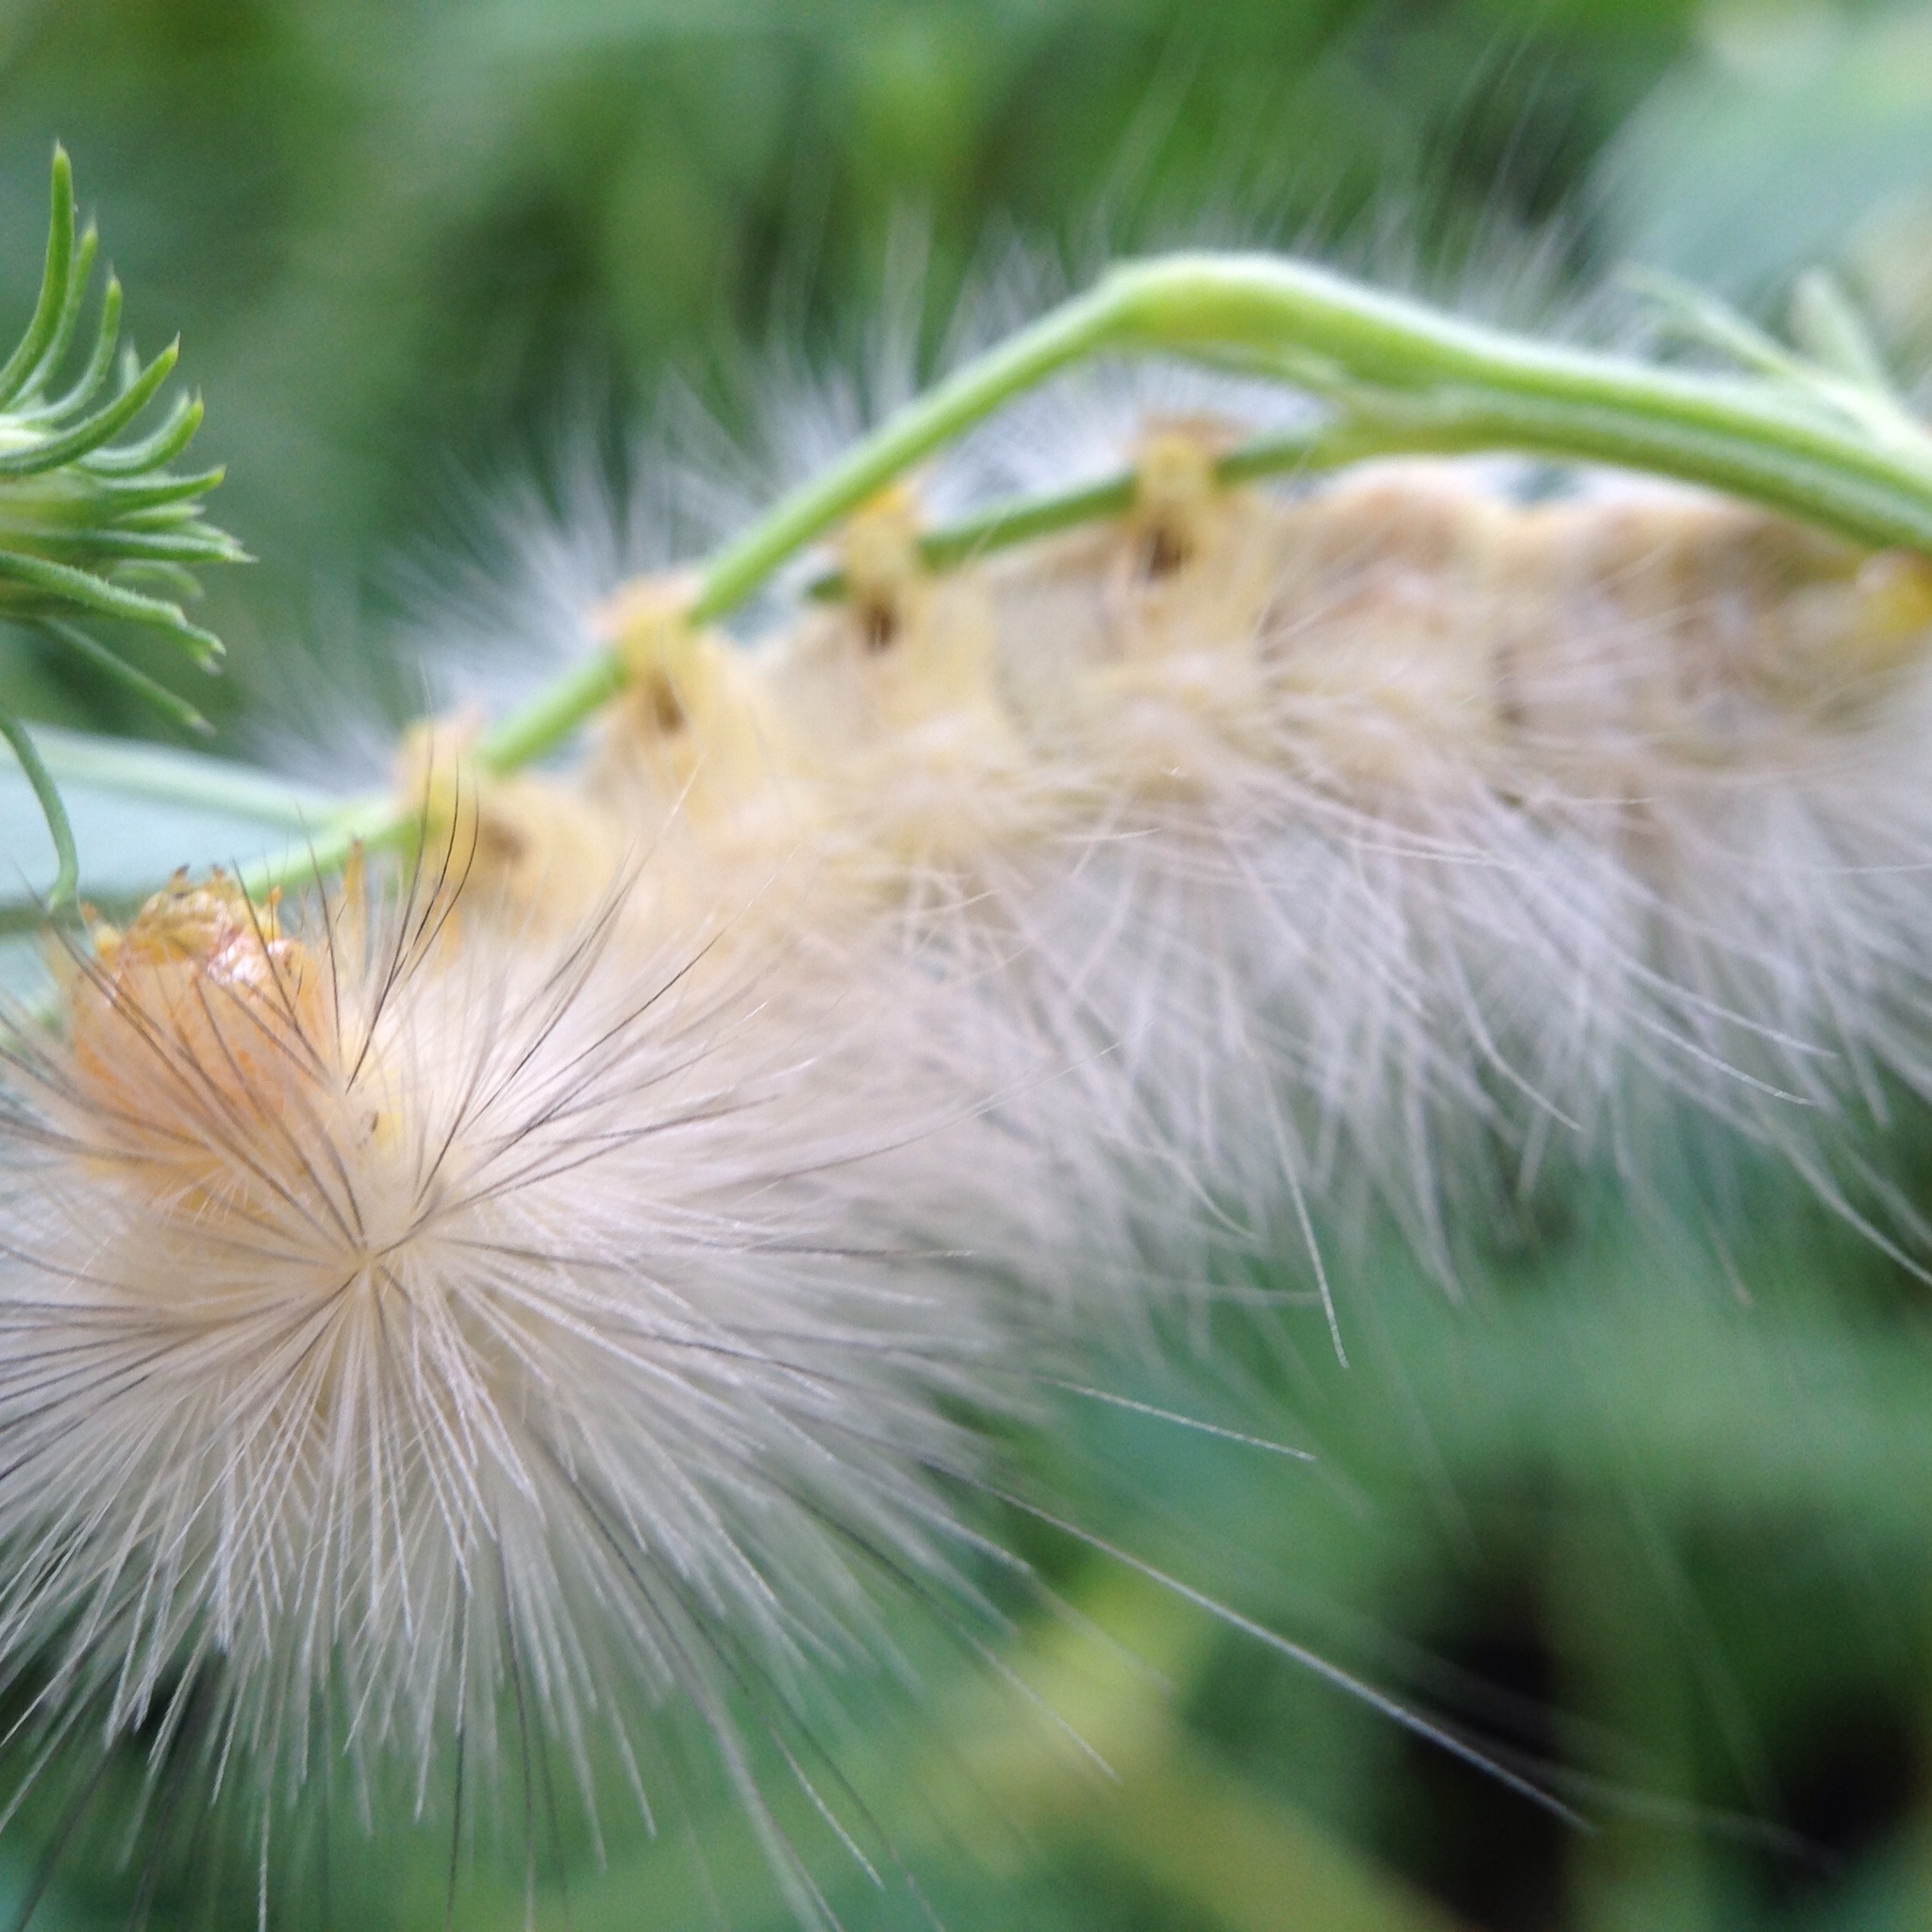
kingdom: Animalia
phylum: Arthropoda
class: Insecta
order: Lepidoptera
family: Erebidae
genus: Spilosoma
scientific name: Spilosoma virginica
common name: Virginia tiger moth
